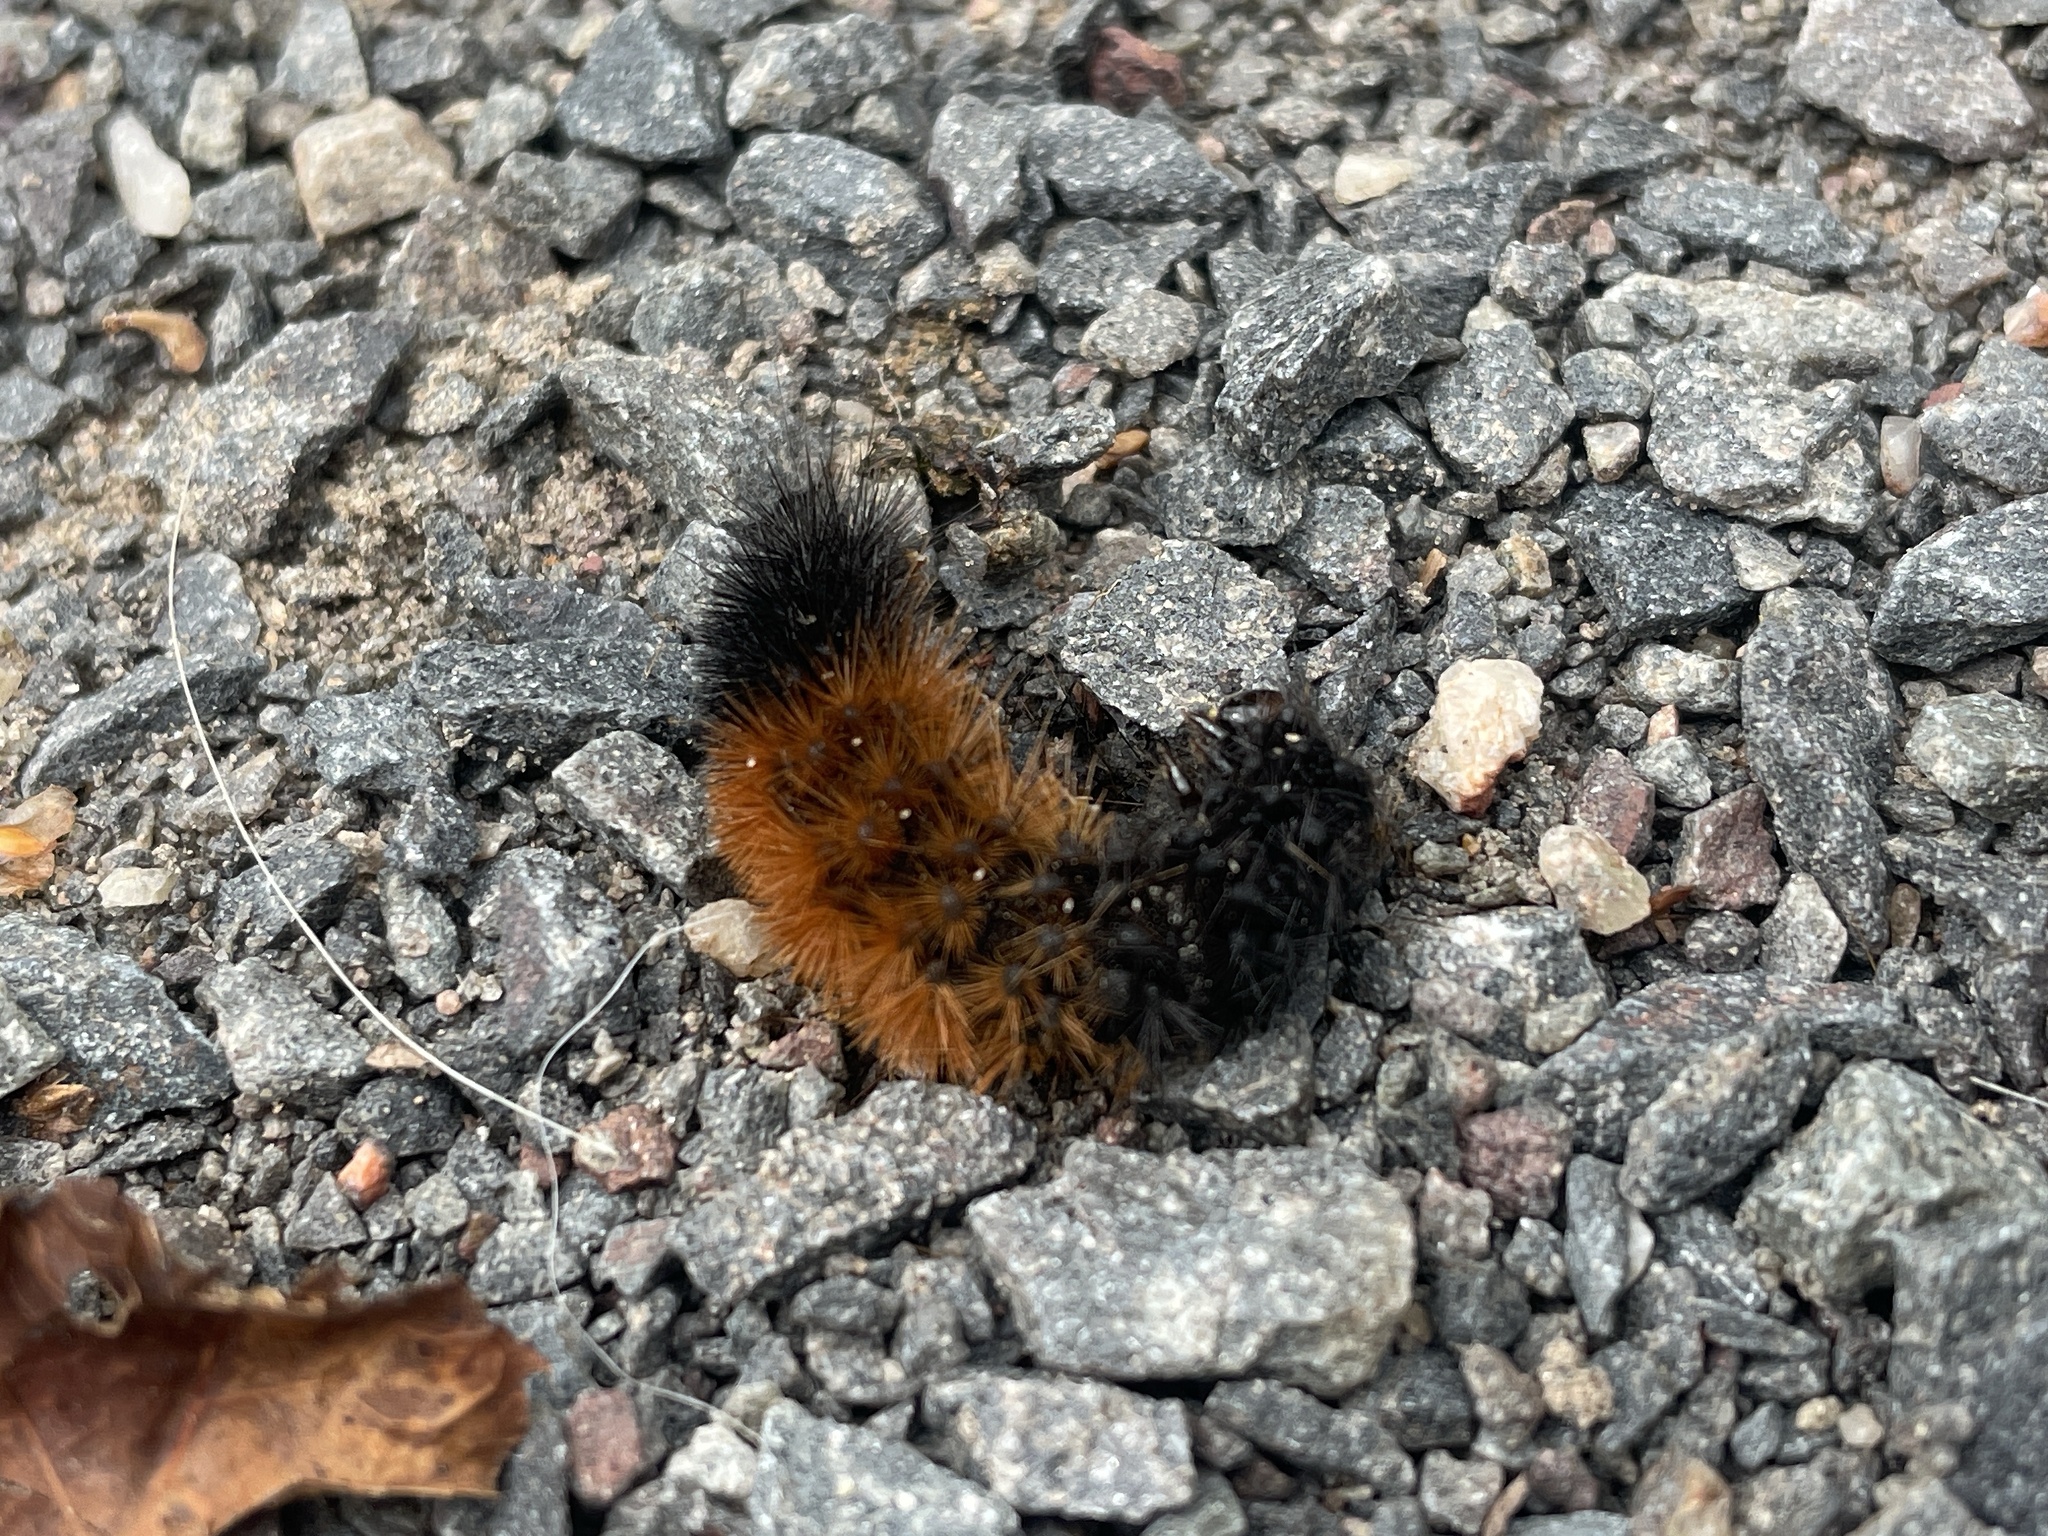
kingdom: Animalia
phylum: Arthropoda
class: Insecta
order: Lepidoptera
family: Erebidae
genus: Pyrrharctia
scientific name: Pyrrharctia isabella
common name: Isabella tiger moth
